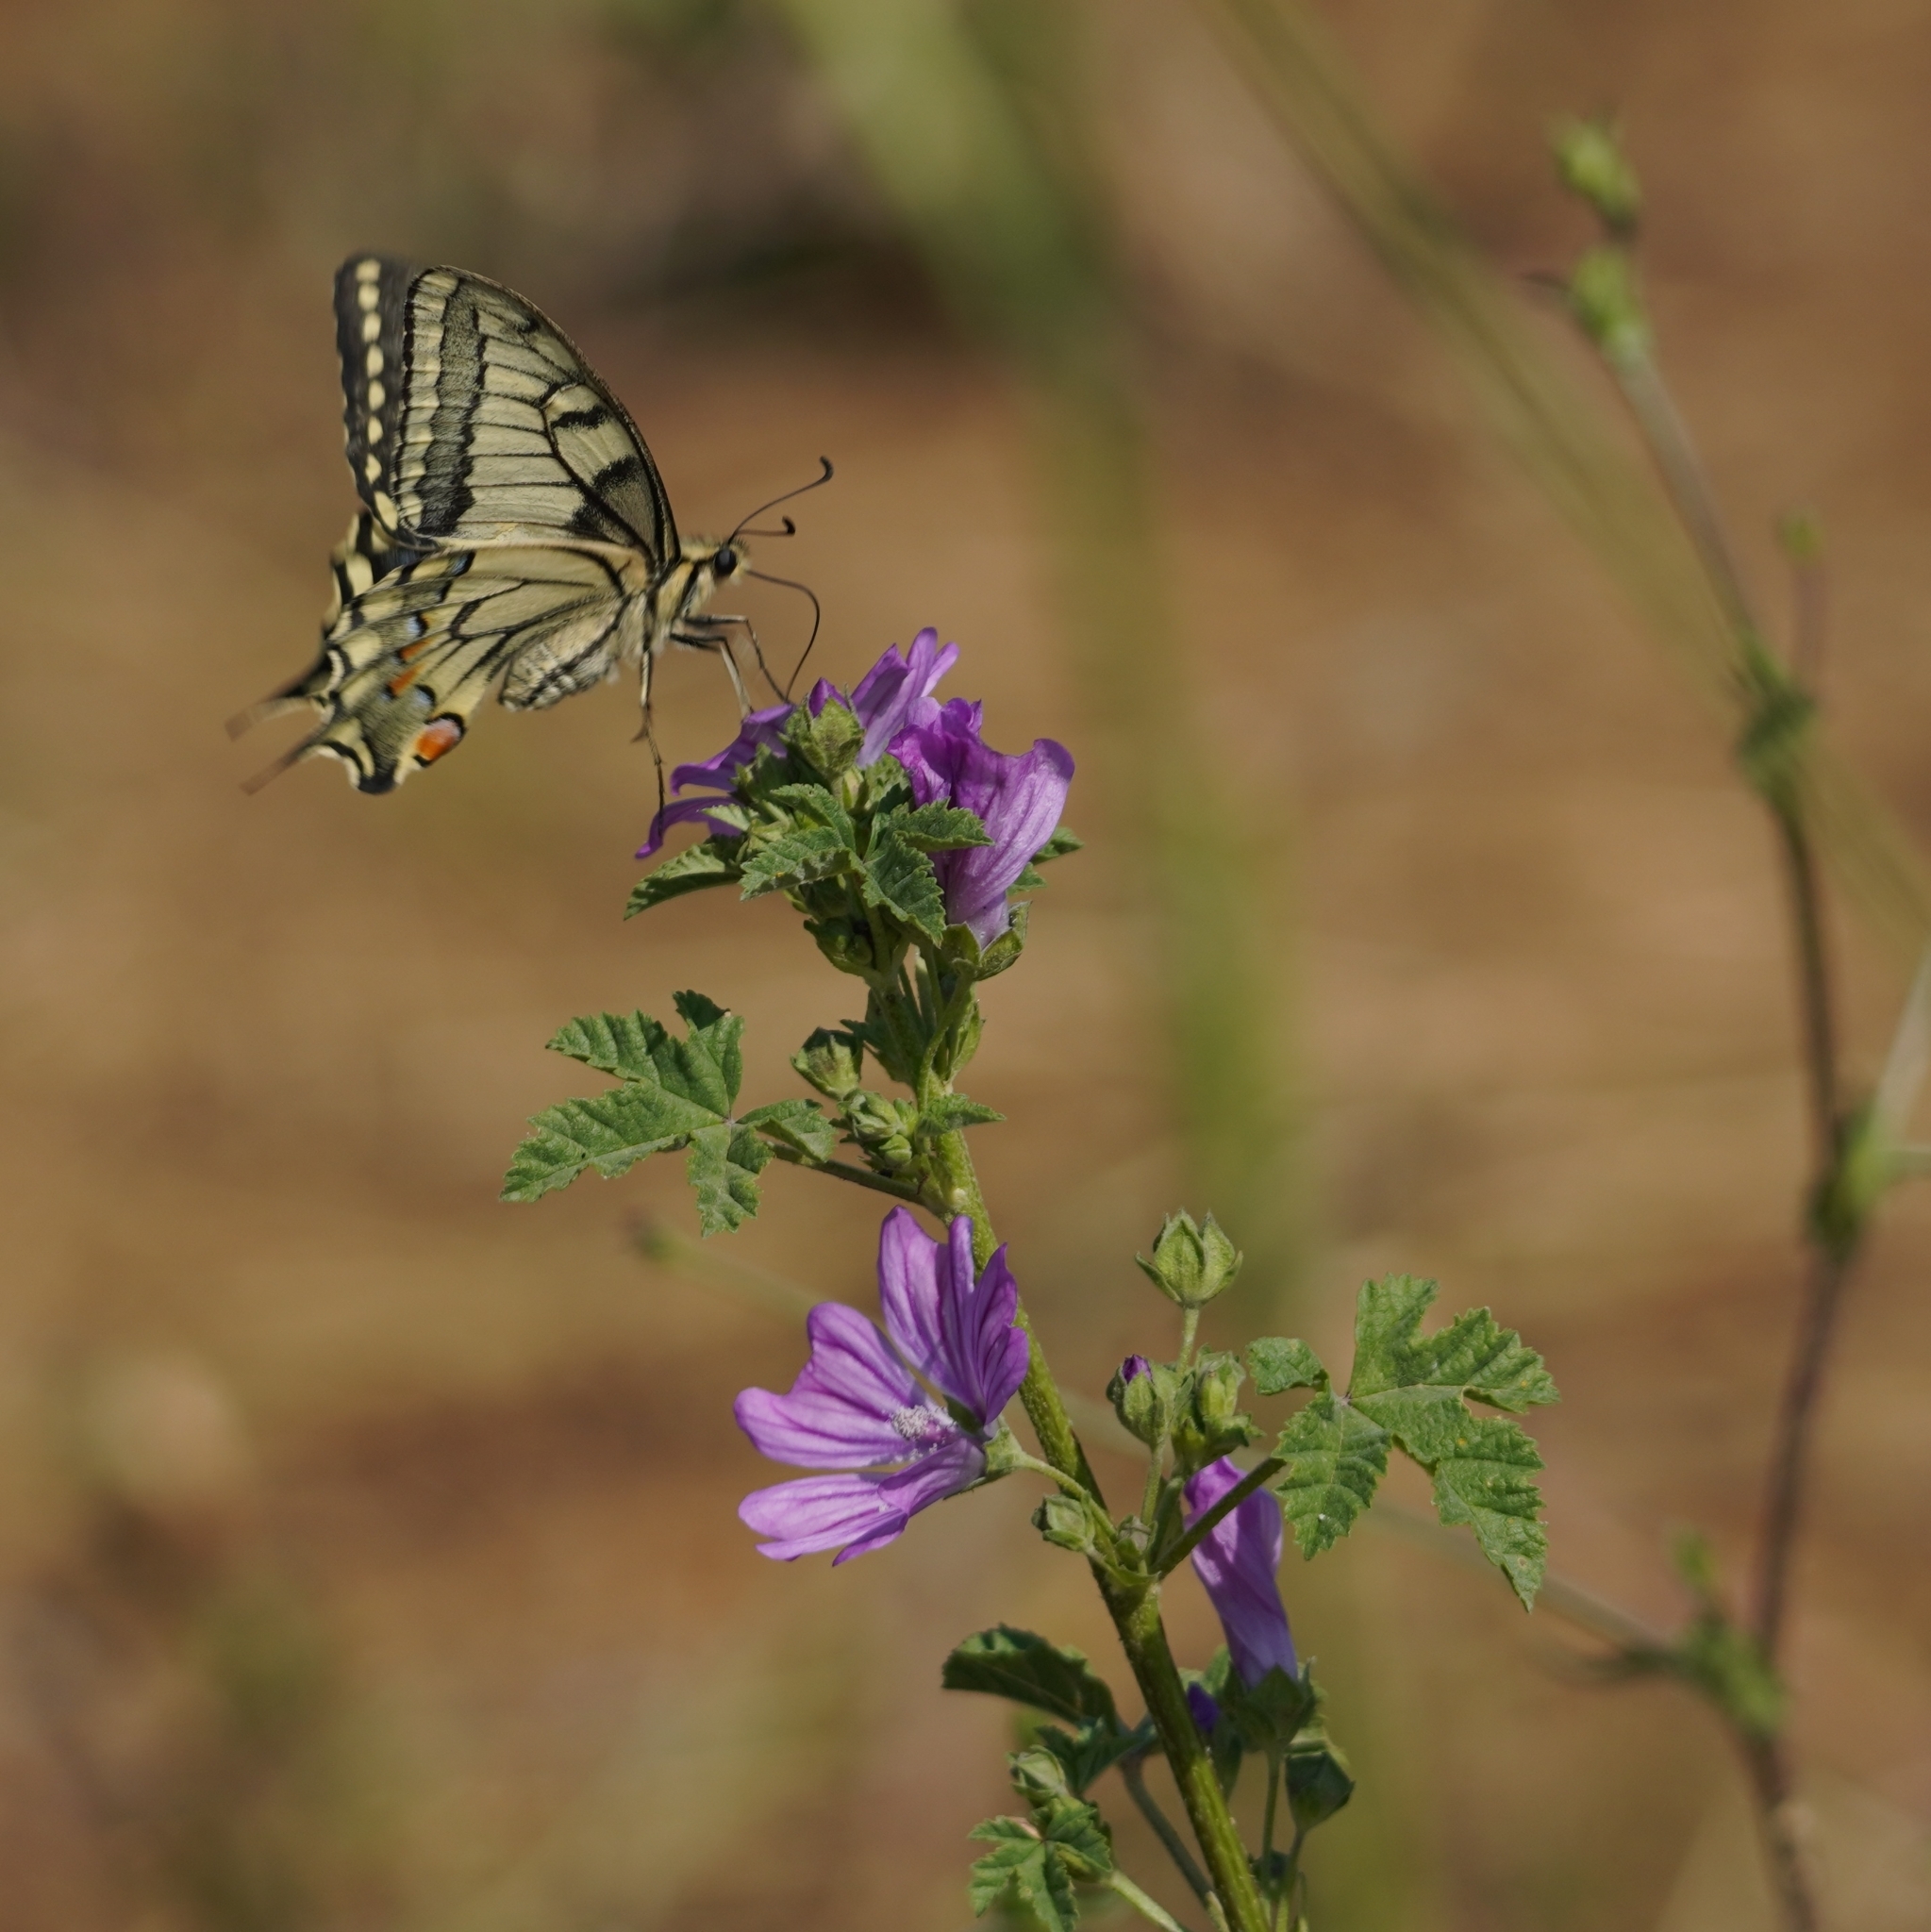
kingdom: Animalia
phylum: Arthropoda
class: Insecta
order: Lepidoptera
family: Papilionidae
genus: Papilio
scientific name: Papilio machaon
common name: Swallowtail
